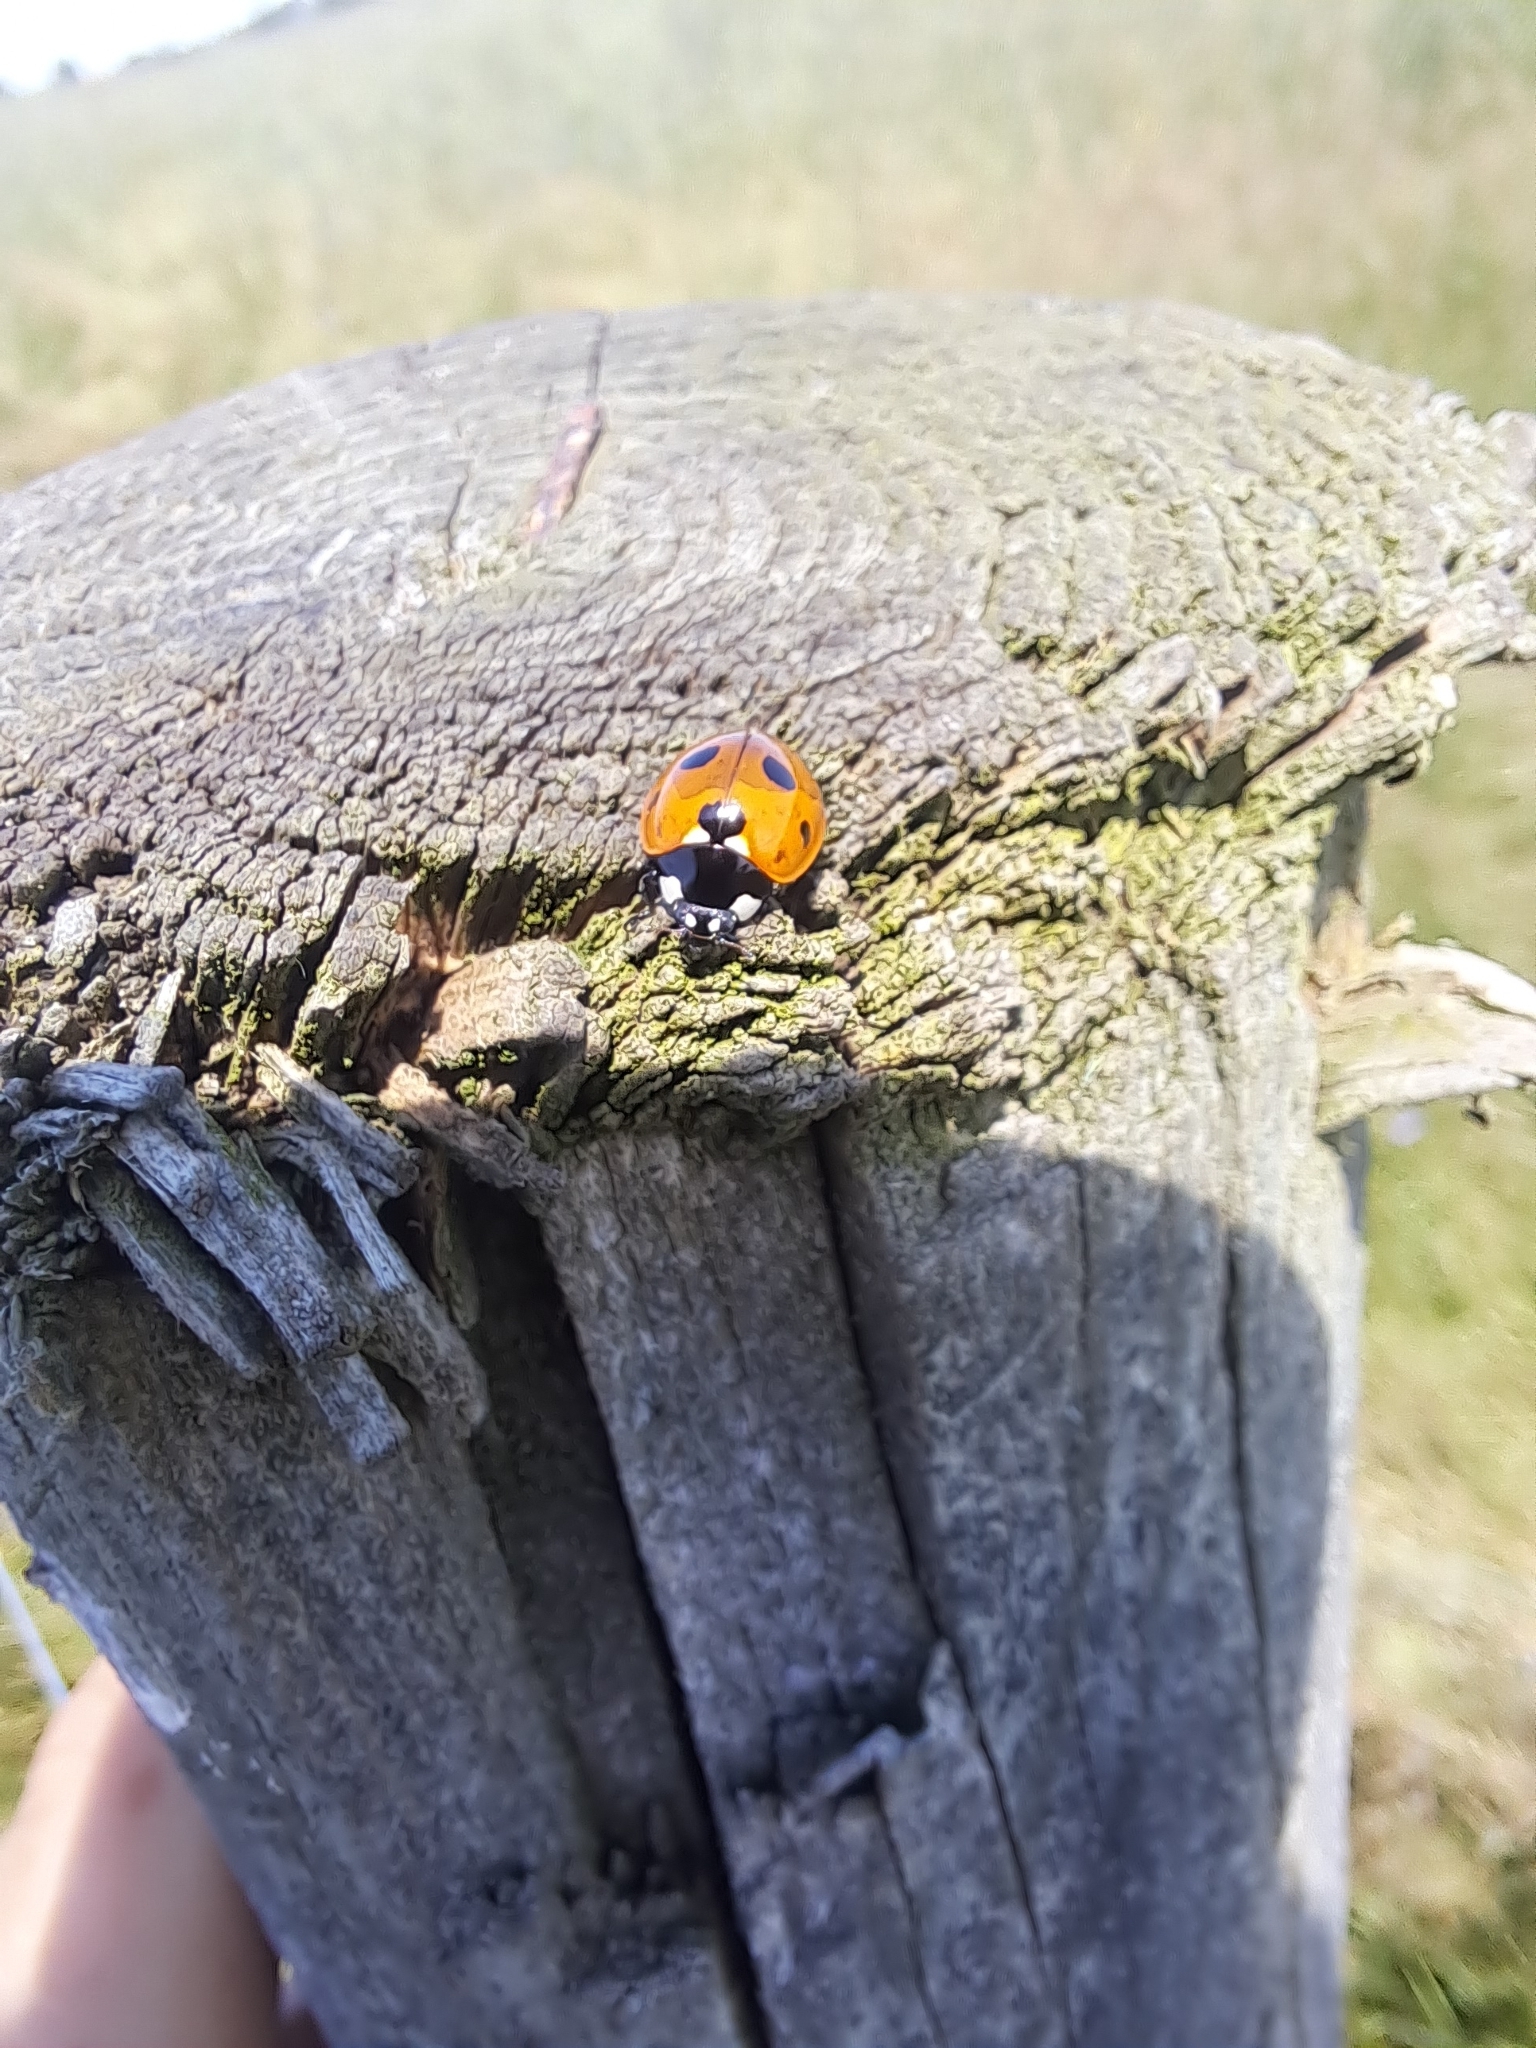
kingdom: Animalia
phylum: Arthropoda
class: Insecta
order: Coleoptera
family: Coccinellidae
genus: Coccinella
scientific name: Coccinella septempunctata
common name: Sevenspotted lady beetle
